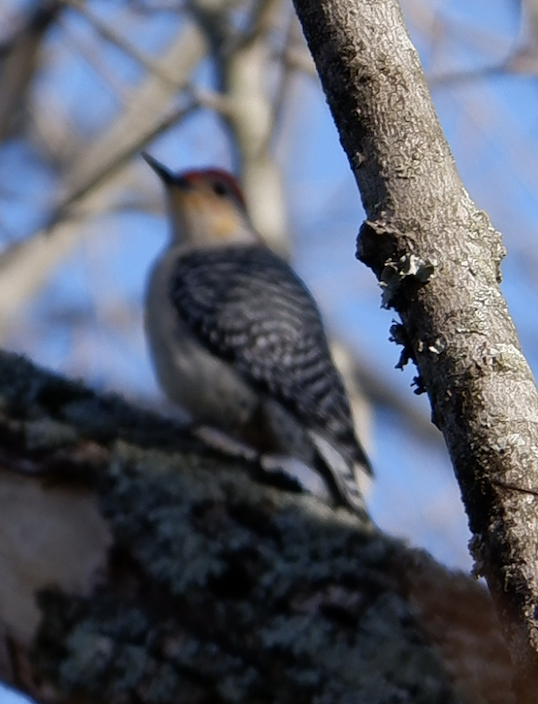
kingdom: Animalia
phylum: Chordata
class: Aves
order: Piciformes
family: Picidae
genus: Melanerpes
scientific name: Melanerpes carolinus
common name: Red-bellied woodpecker
